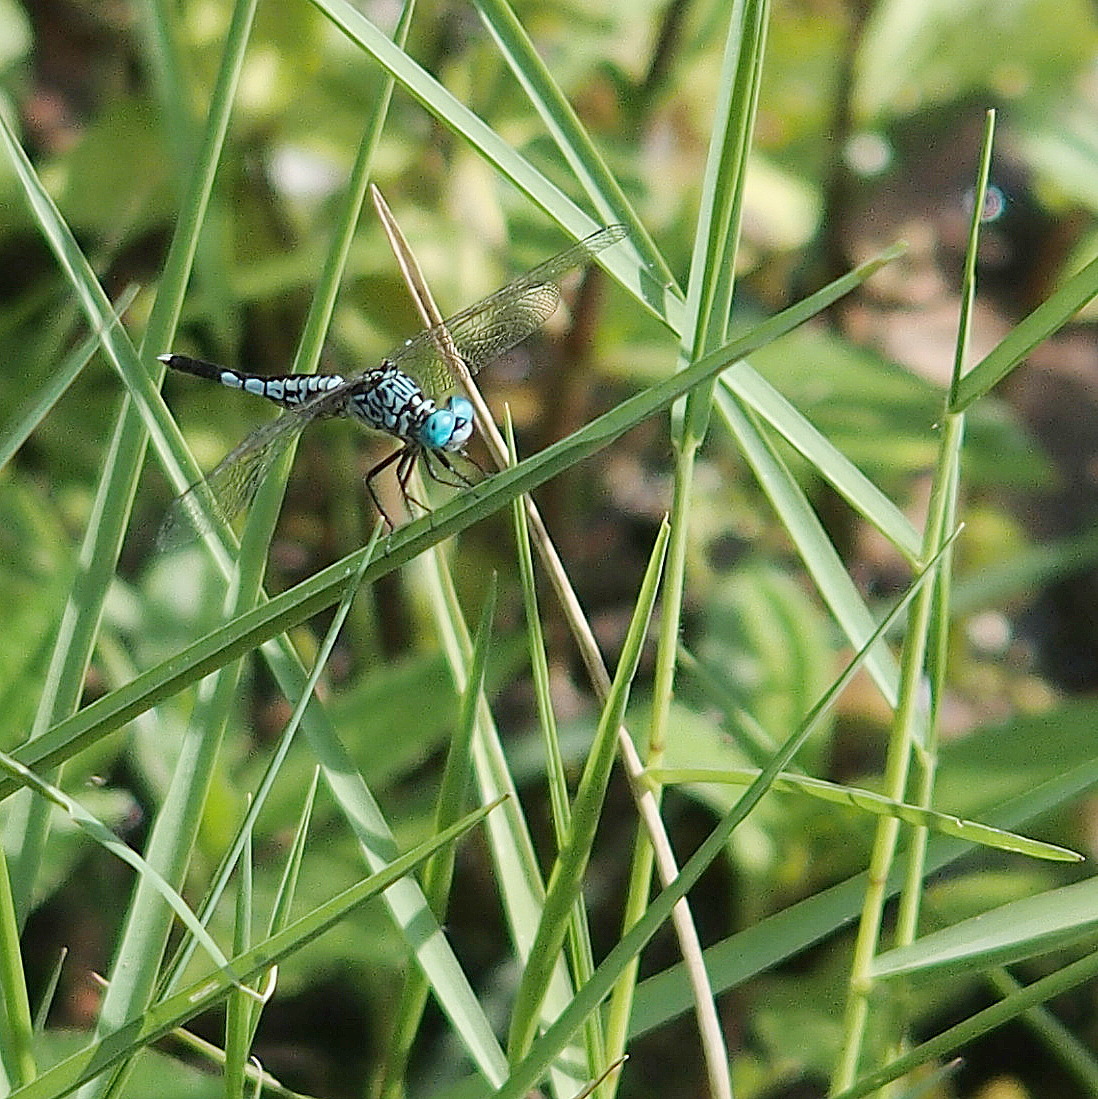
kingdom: Animalia
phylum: Arthropoda
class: Insecta
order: Odonata
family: Libellulidae
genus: Acisoma
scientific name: Acisoma panorpoides
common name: Asian pintail
